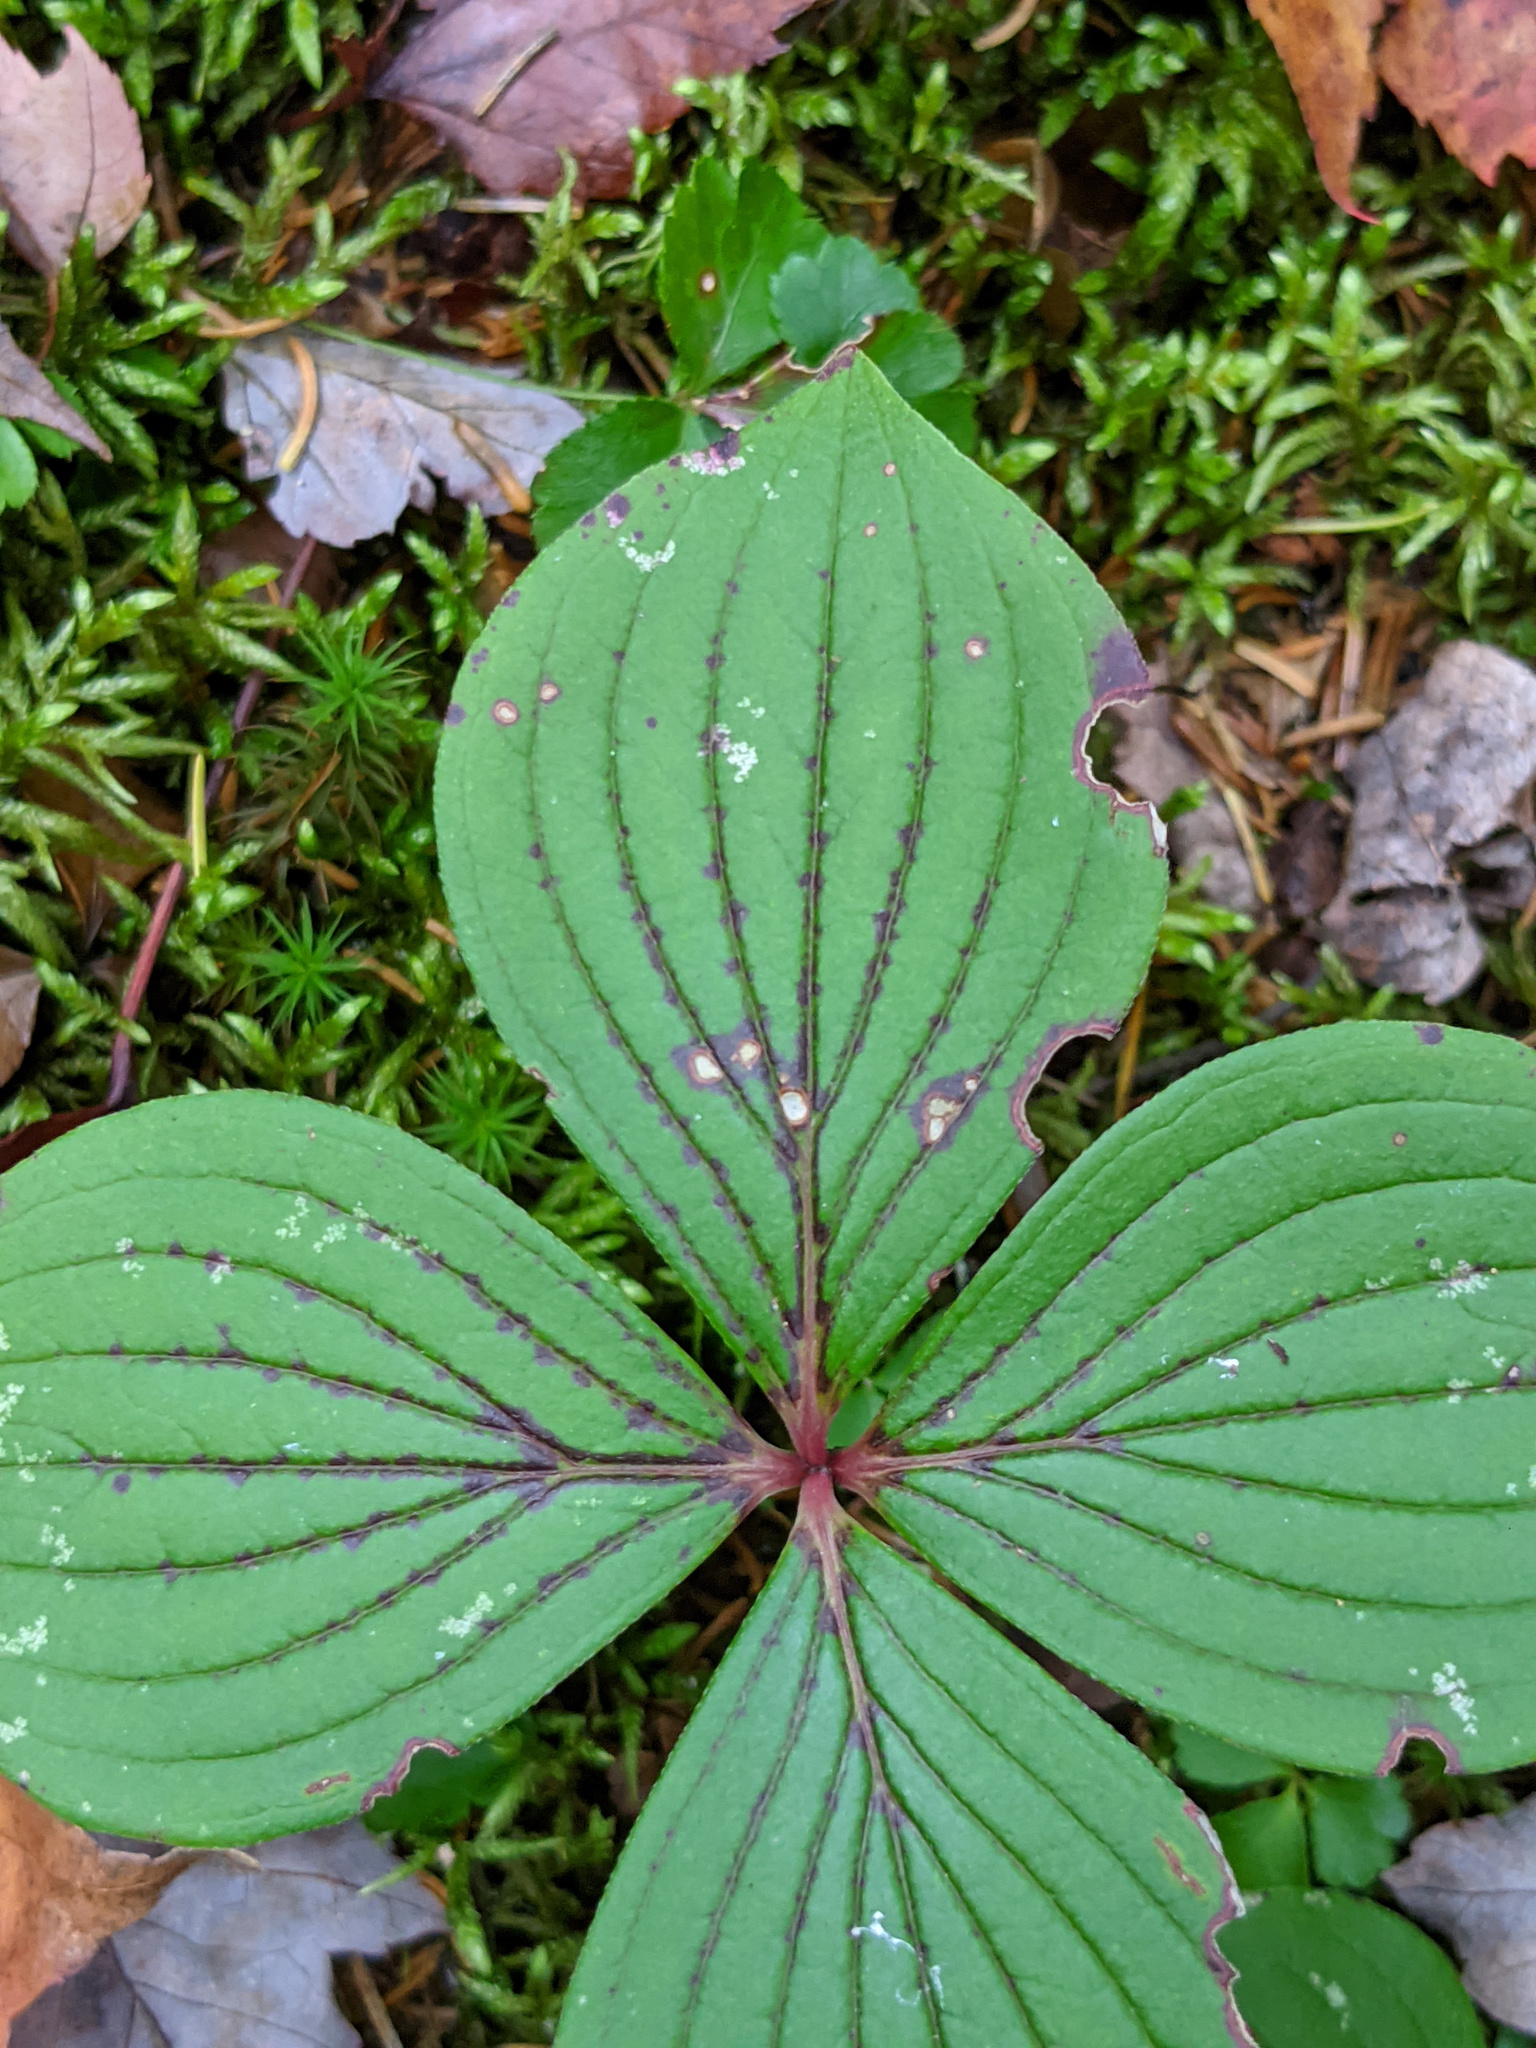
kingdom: Plantae
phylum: Tracheophyta
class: Magnoliopsida
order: Cornales
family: Cornaceae
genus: Cornus
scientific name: Cornus canadensis
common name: Creeping dogwood
